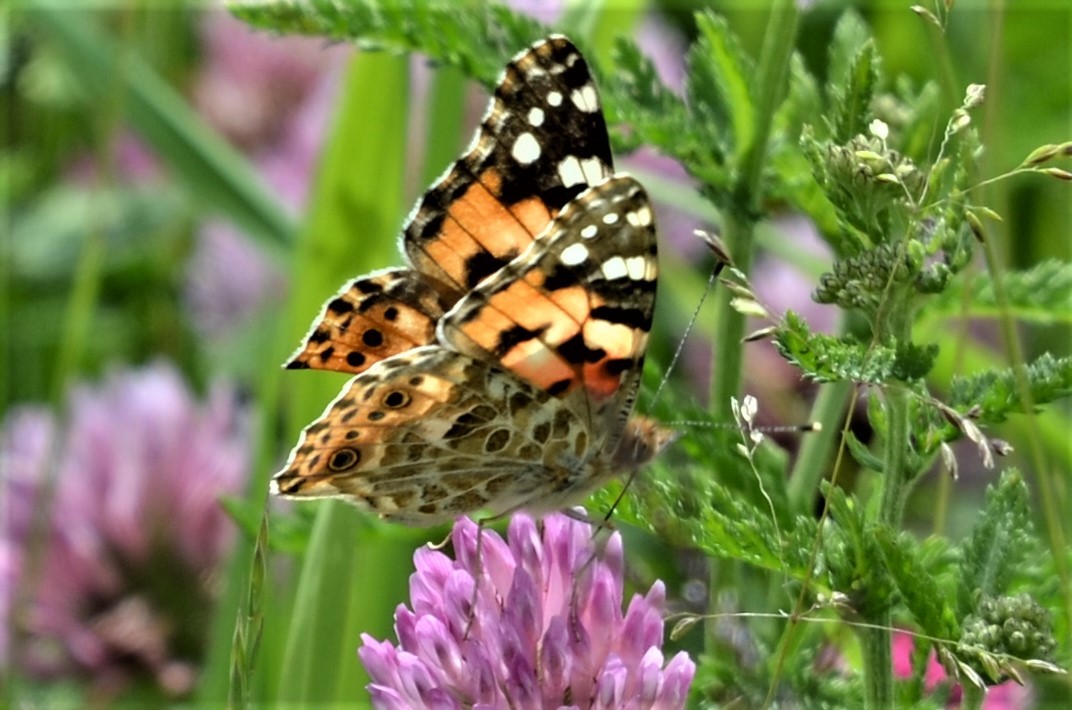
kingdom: Animalia
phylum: Arthropoda
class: Insecta
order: Lepidoptera
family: Nymphalidae
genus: Vanessa
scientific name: Vanessa cardui
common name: Painted lady
